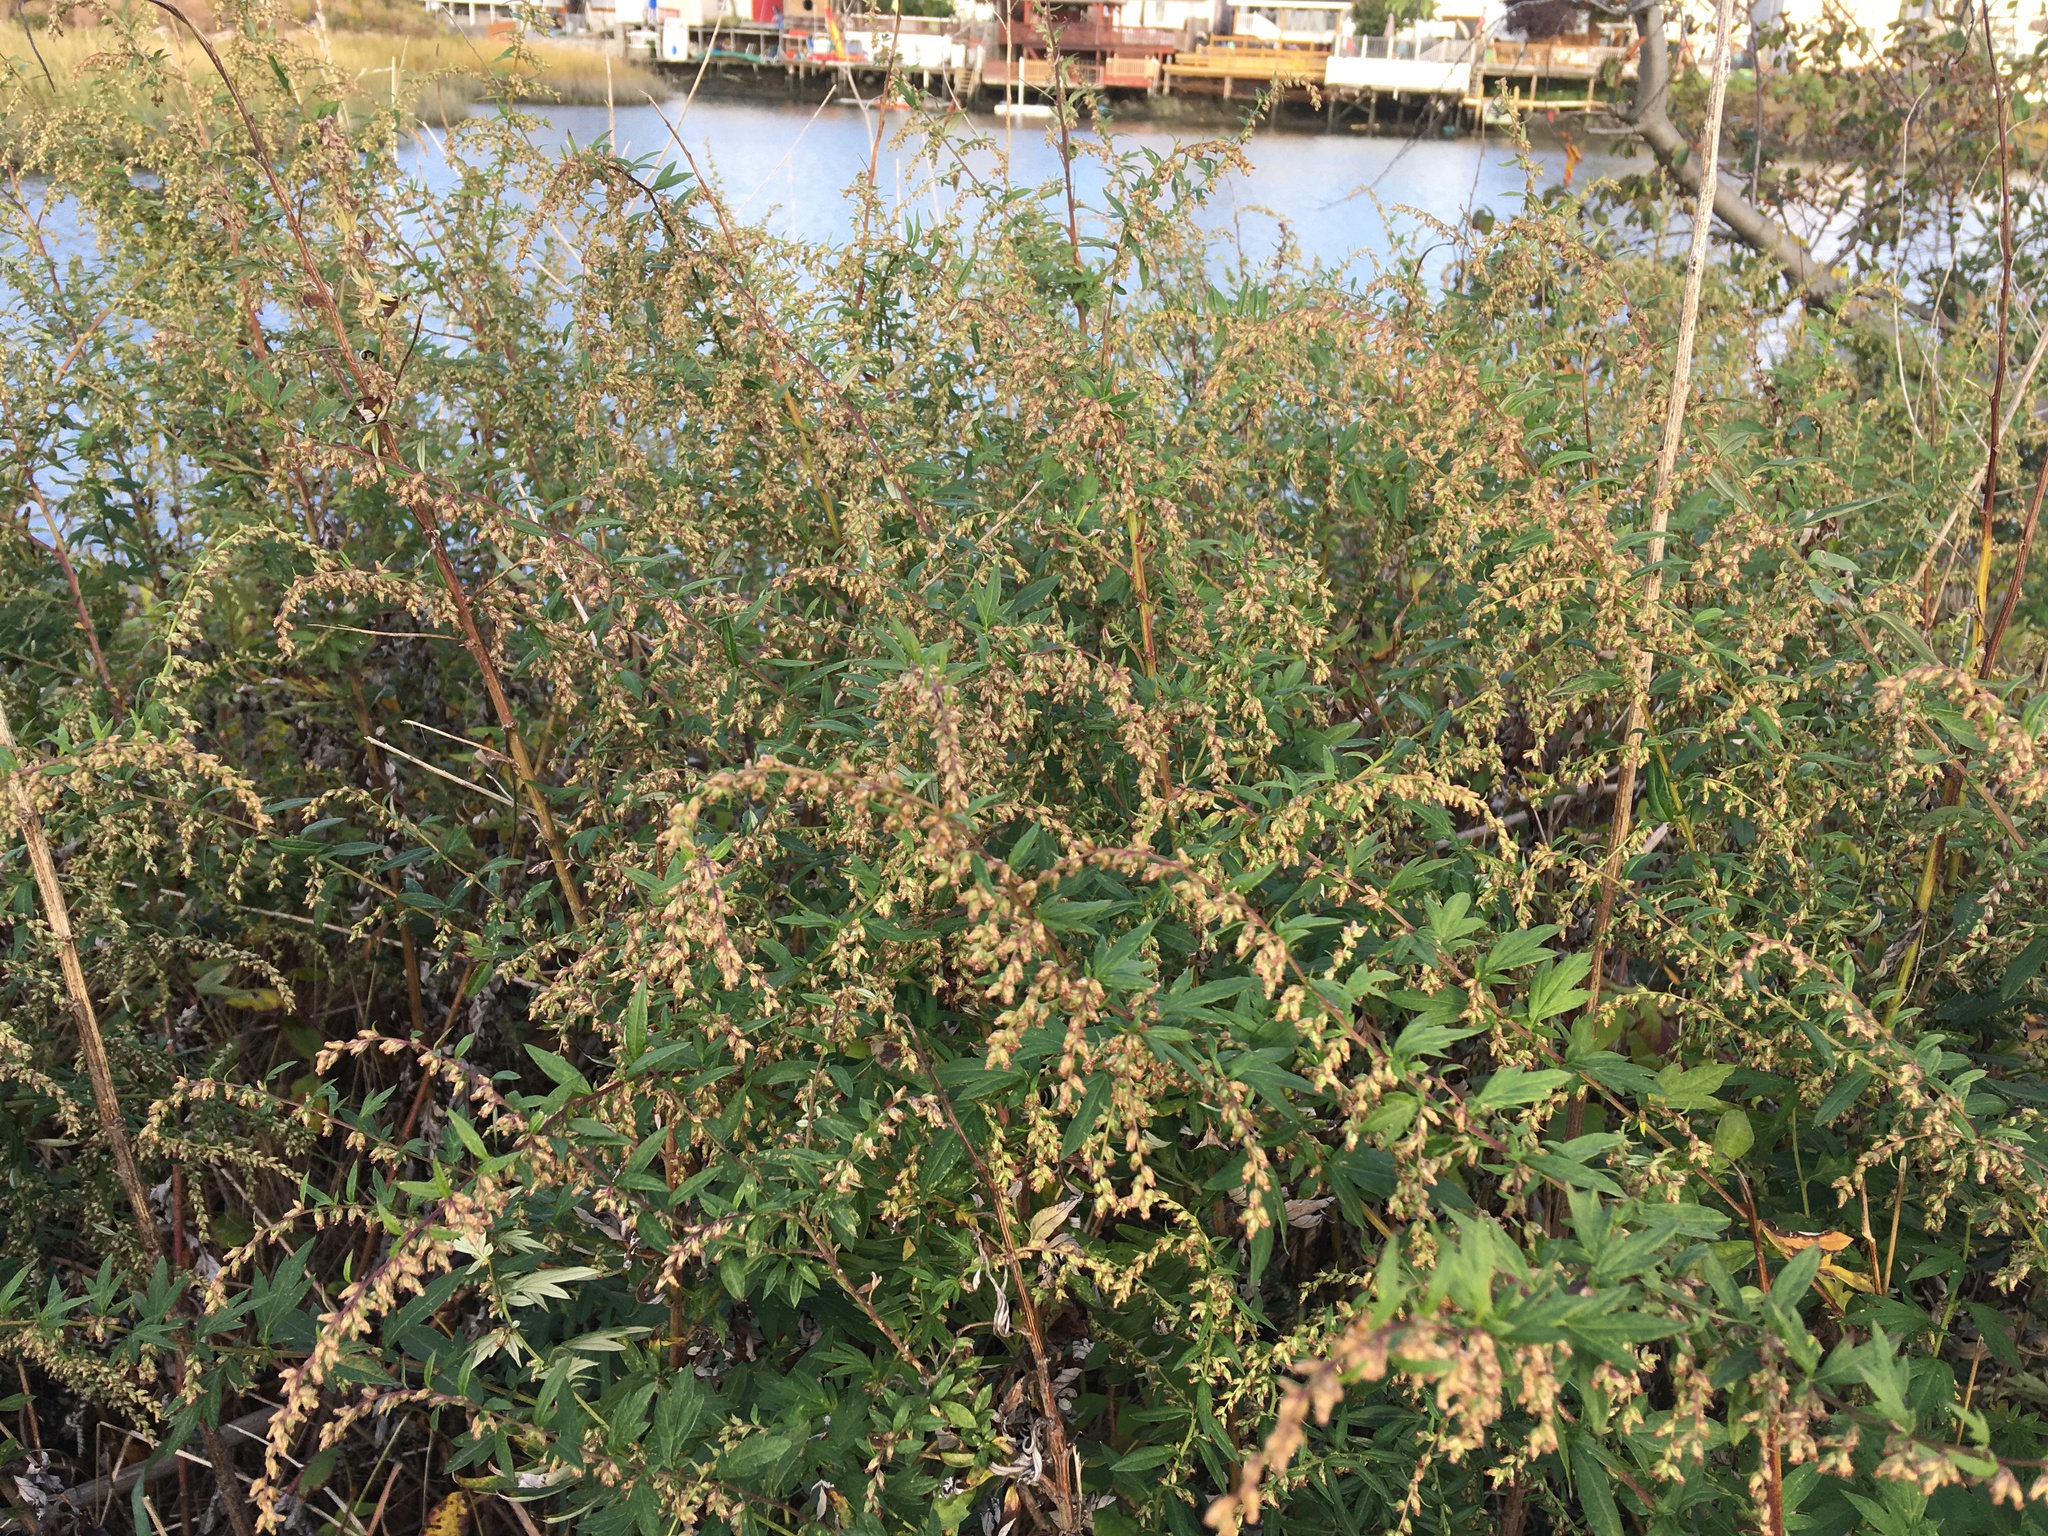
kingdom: Plantae
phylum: Tracheophyta
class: Magnoliopsida
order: Asterales
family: Asteraceae
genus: Artemisia
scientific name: Artemisia vulgaris
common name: Mugwort
